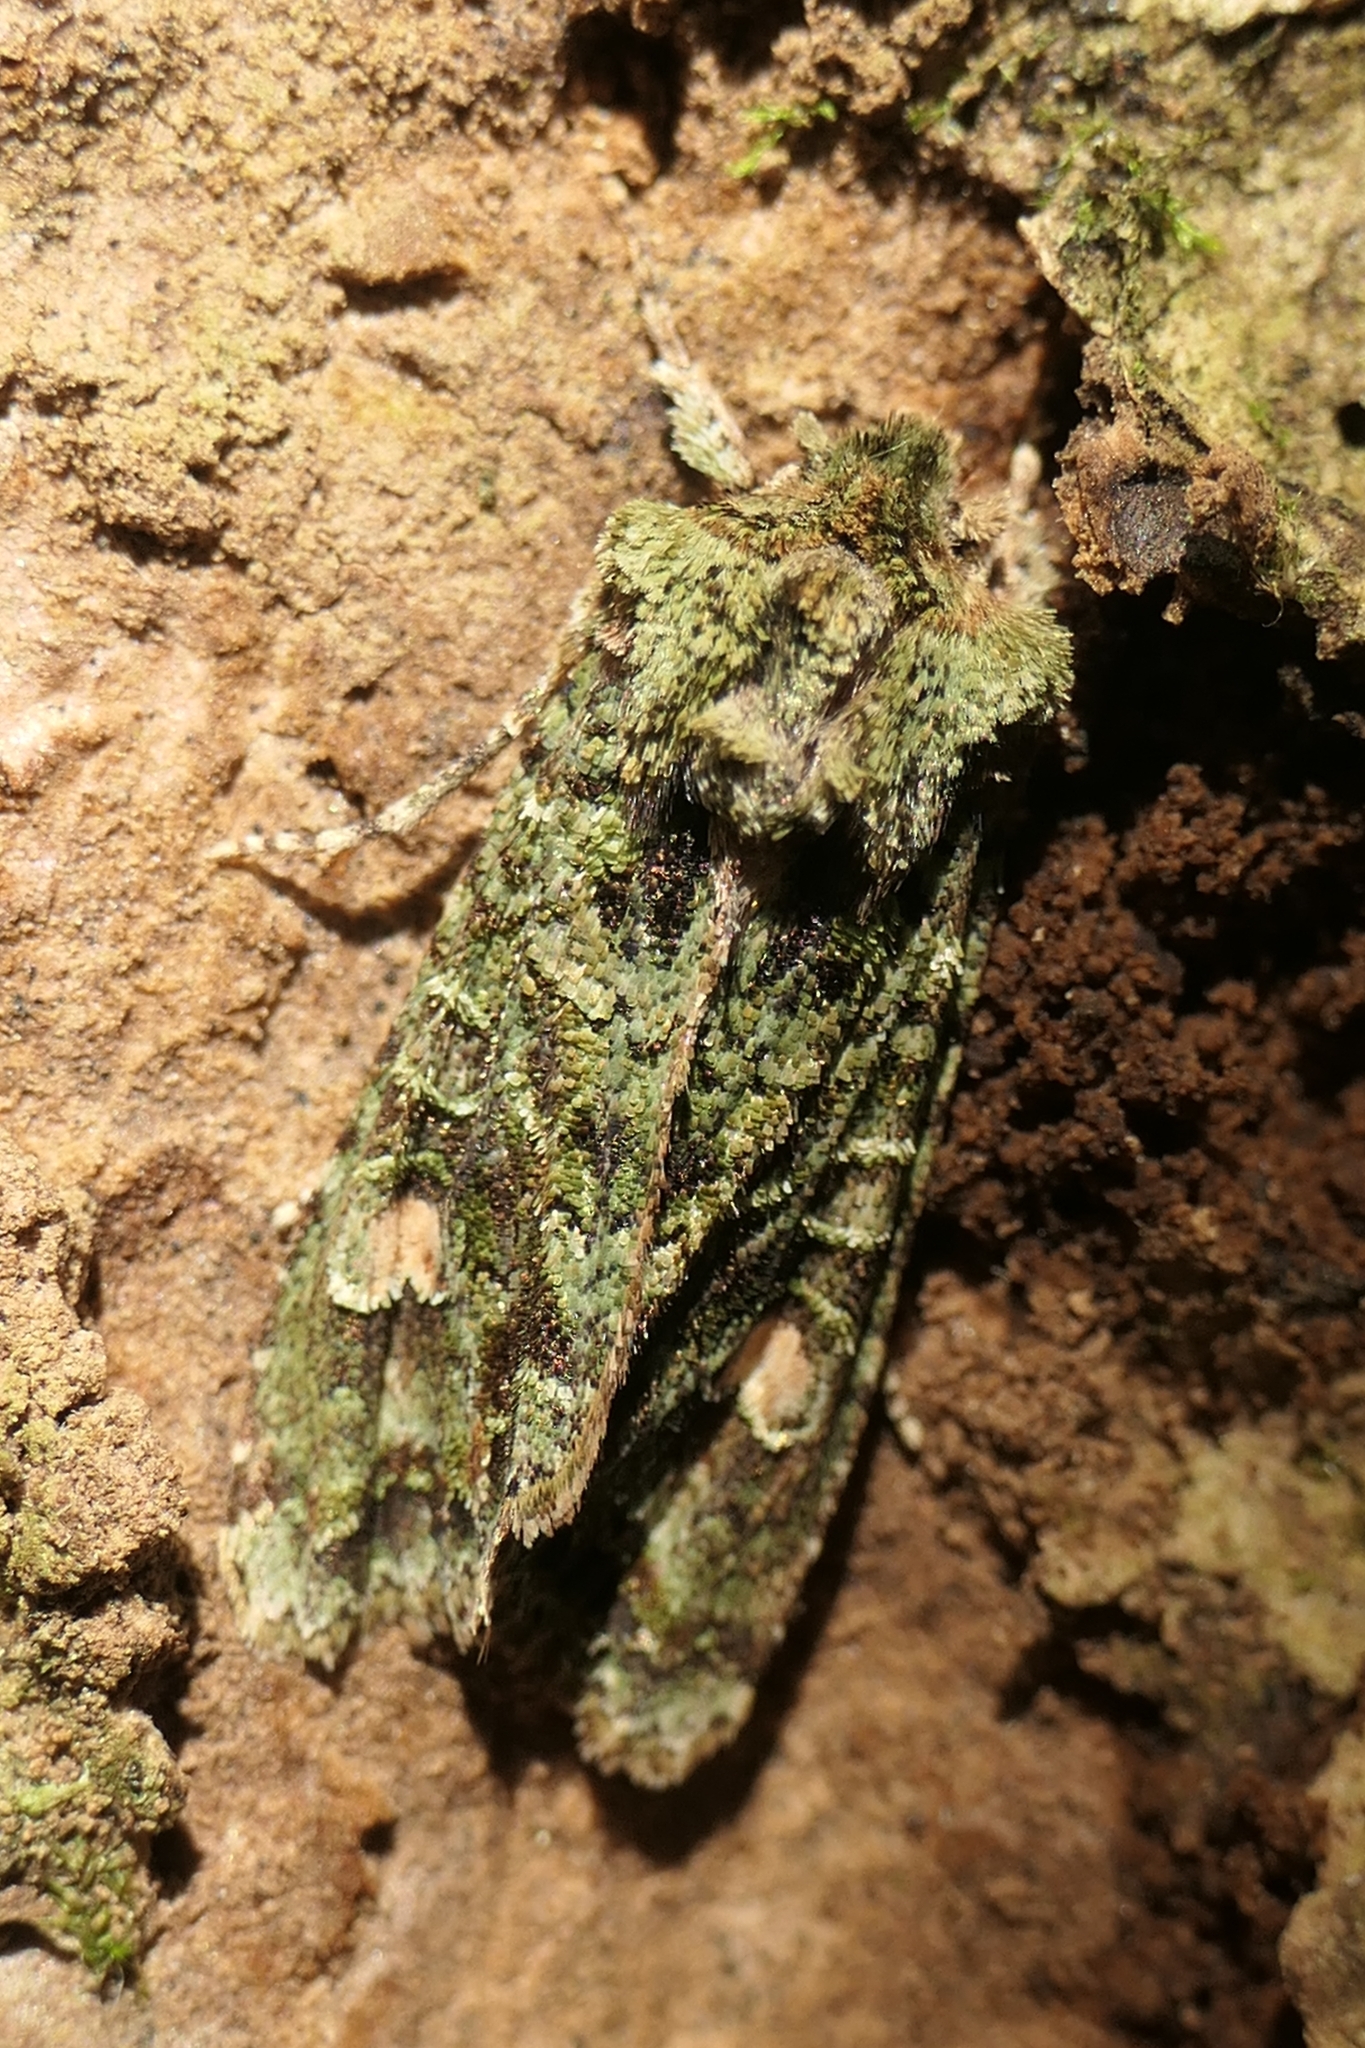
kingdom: Animalia
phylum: Arthropoda
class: Insecta
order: Lepidoptera
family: Noctuidae
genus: Ichneutica
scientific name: Ichneutica
